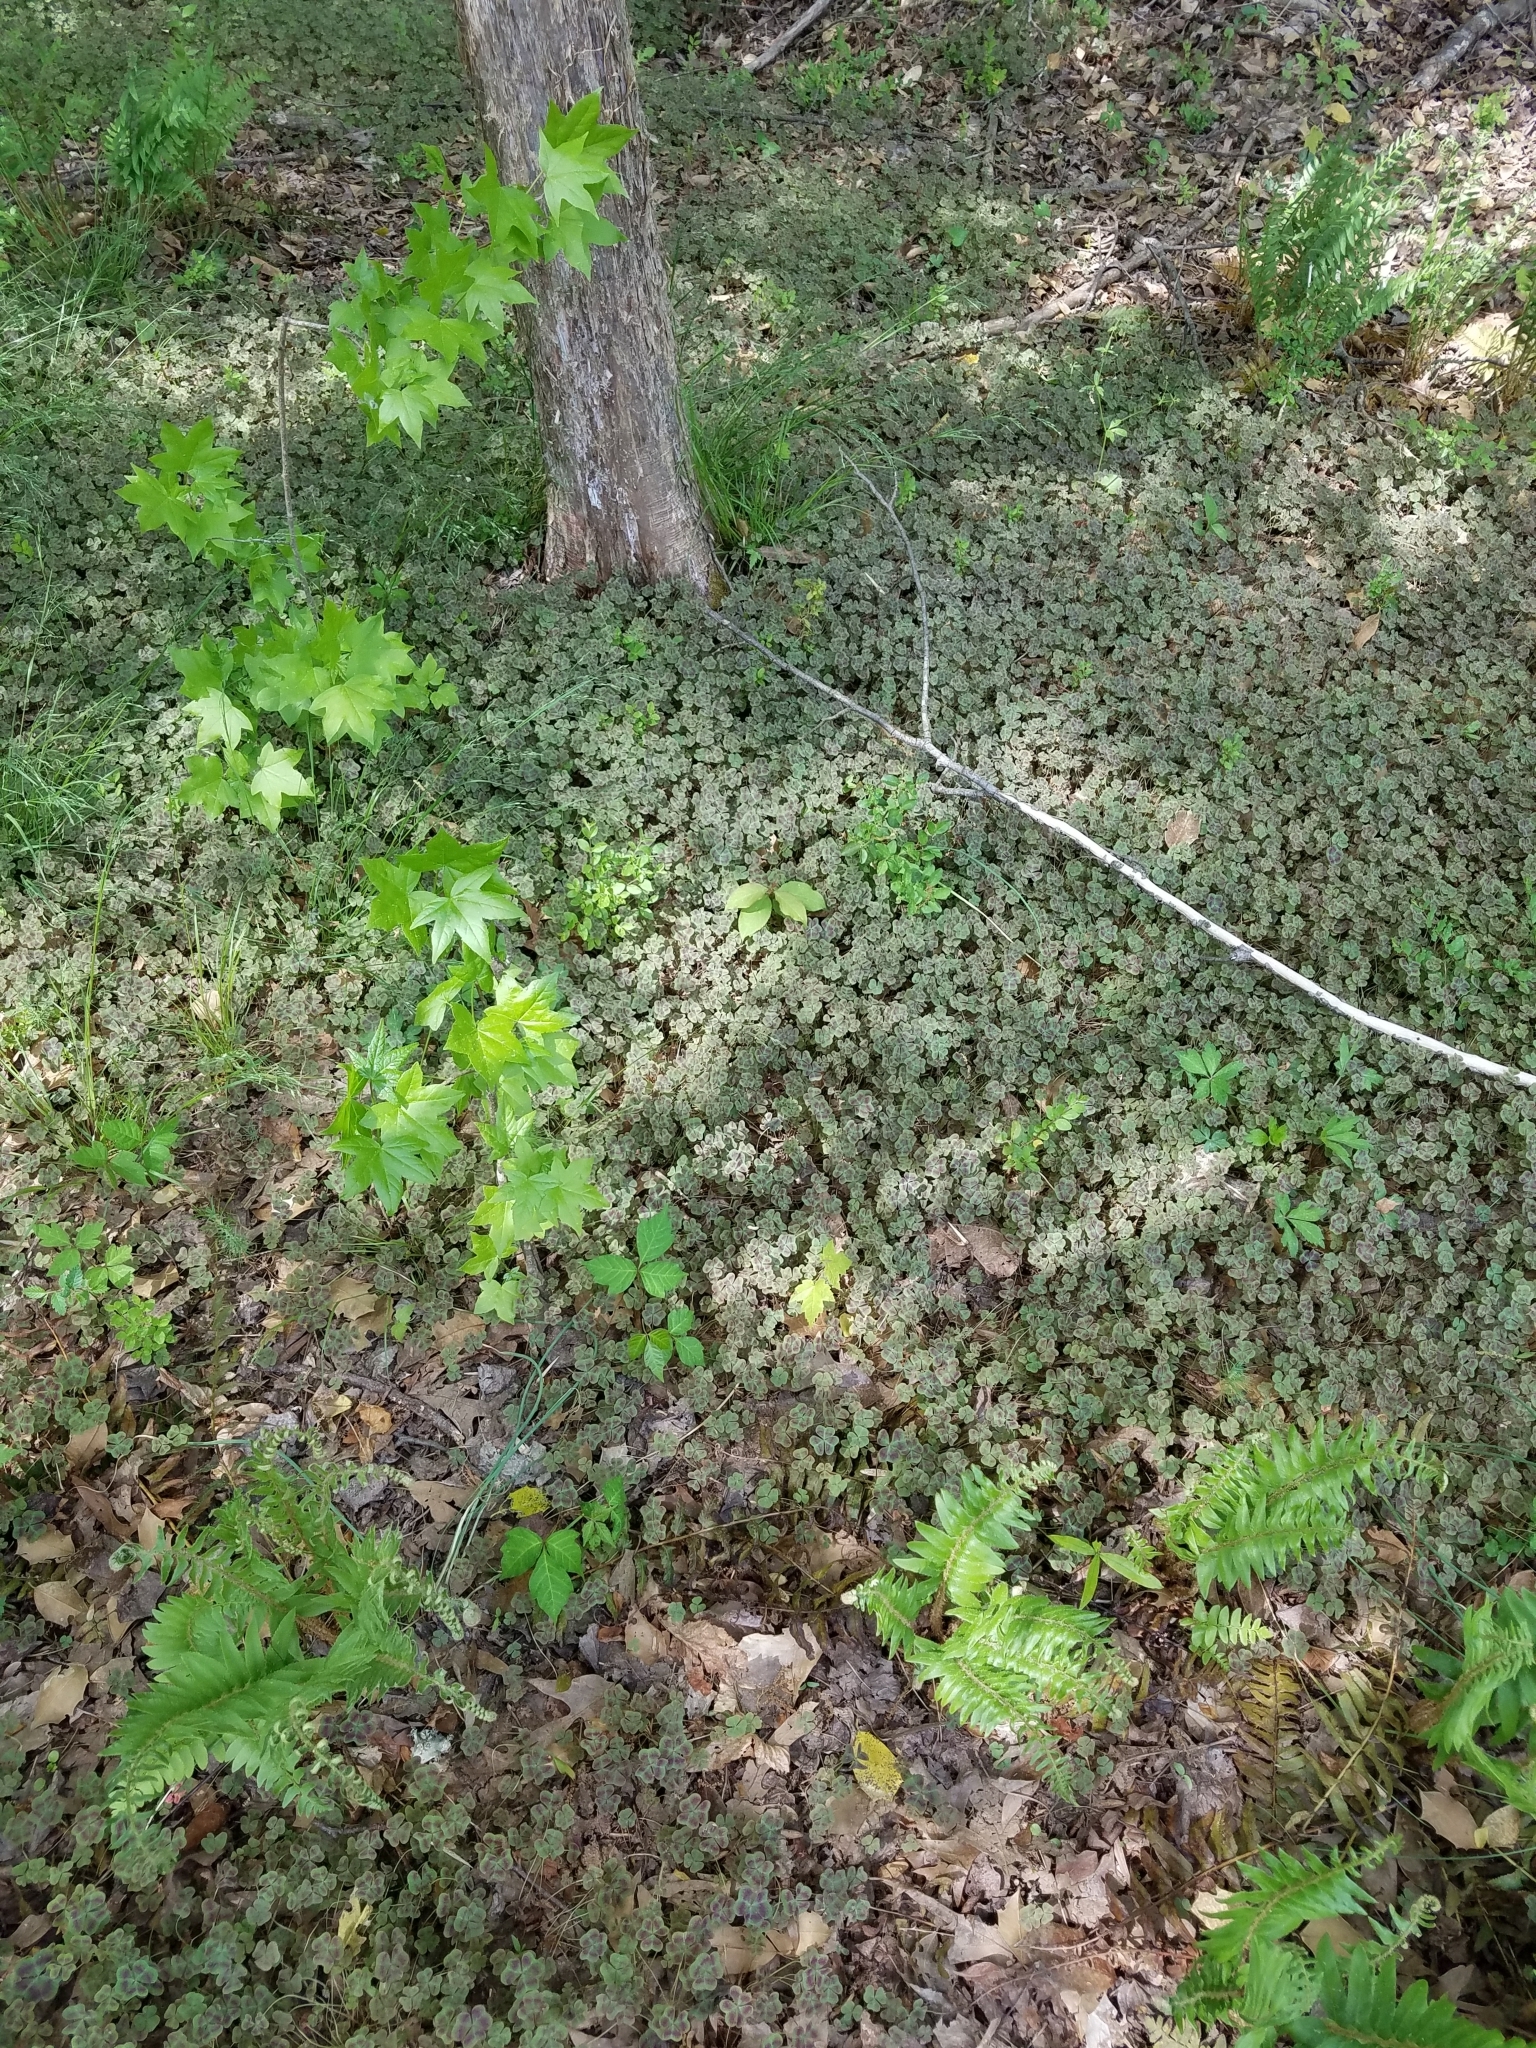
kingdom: Plantae
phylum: Tracheophyta
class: Magnoliopsida
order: Oxalidales
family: Oxalidaceae
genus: Oxalis
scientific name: Oxalis violacea
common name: Violet wood-sorrel
